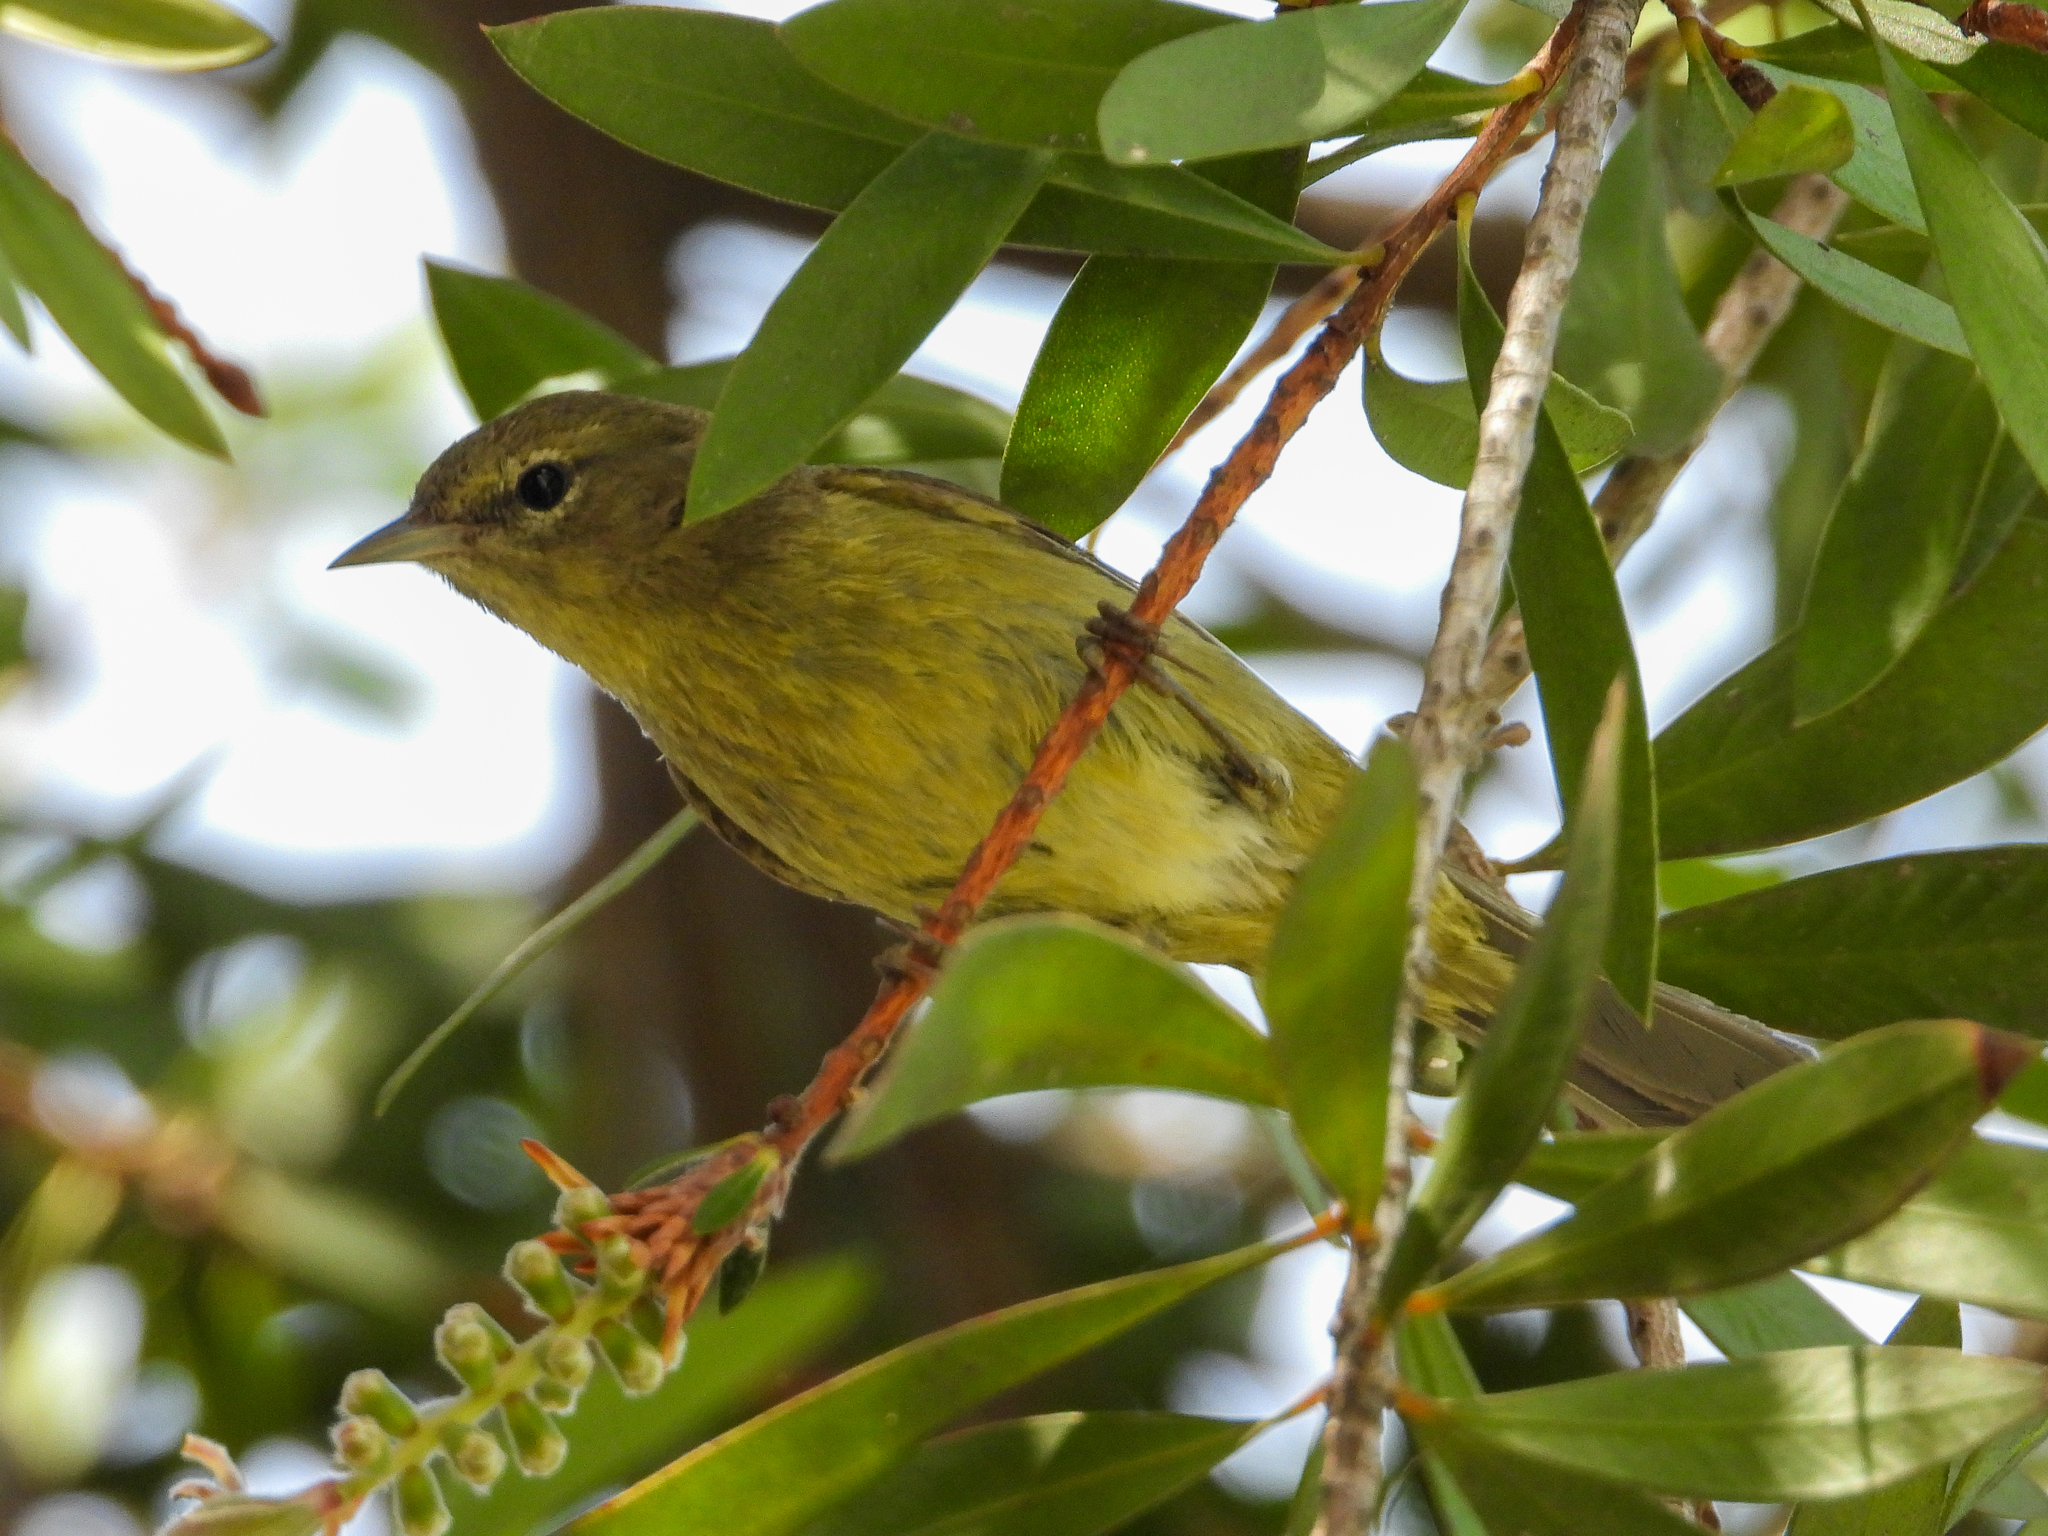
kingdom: Animalia
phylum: Chordata
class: Aves
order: Passeriformes
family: Parulidae
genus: Leiothlypis
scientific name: Leiothlypis celata
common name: Orange-crowned warbler
